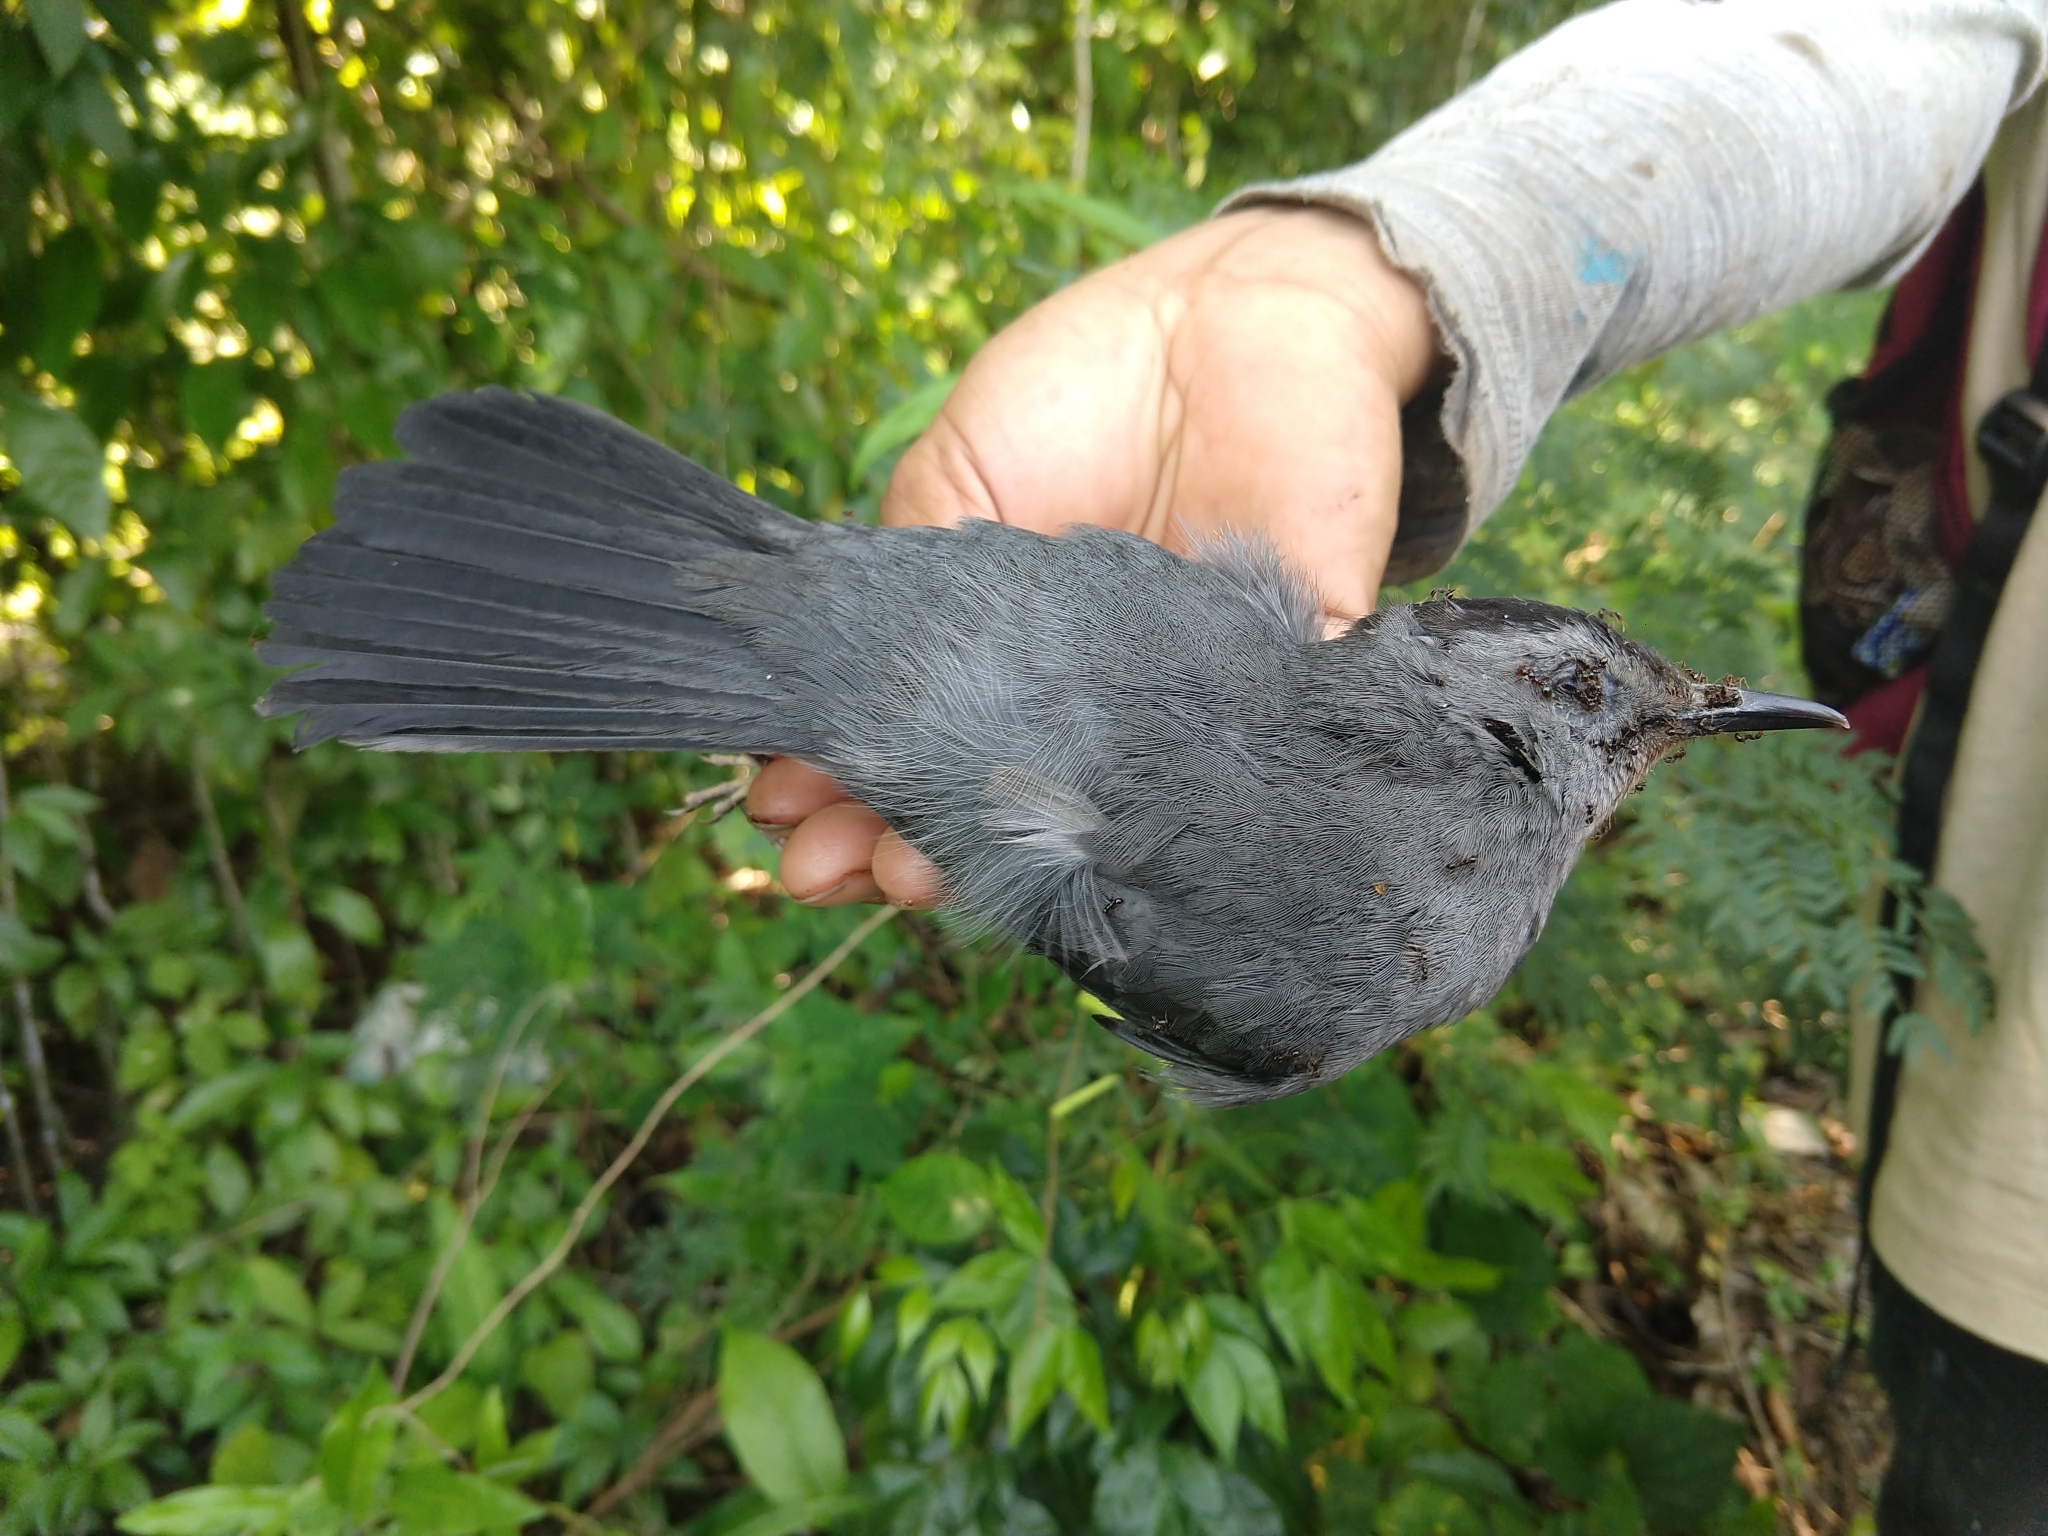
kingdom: Animalia
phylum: Chordata
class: Aves
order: Passeriformes
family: Mimidae
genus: Dumetella
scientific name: Dumetella carolinensis
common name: Gray catbird
